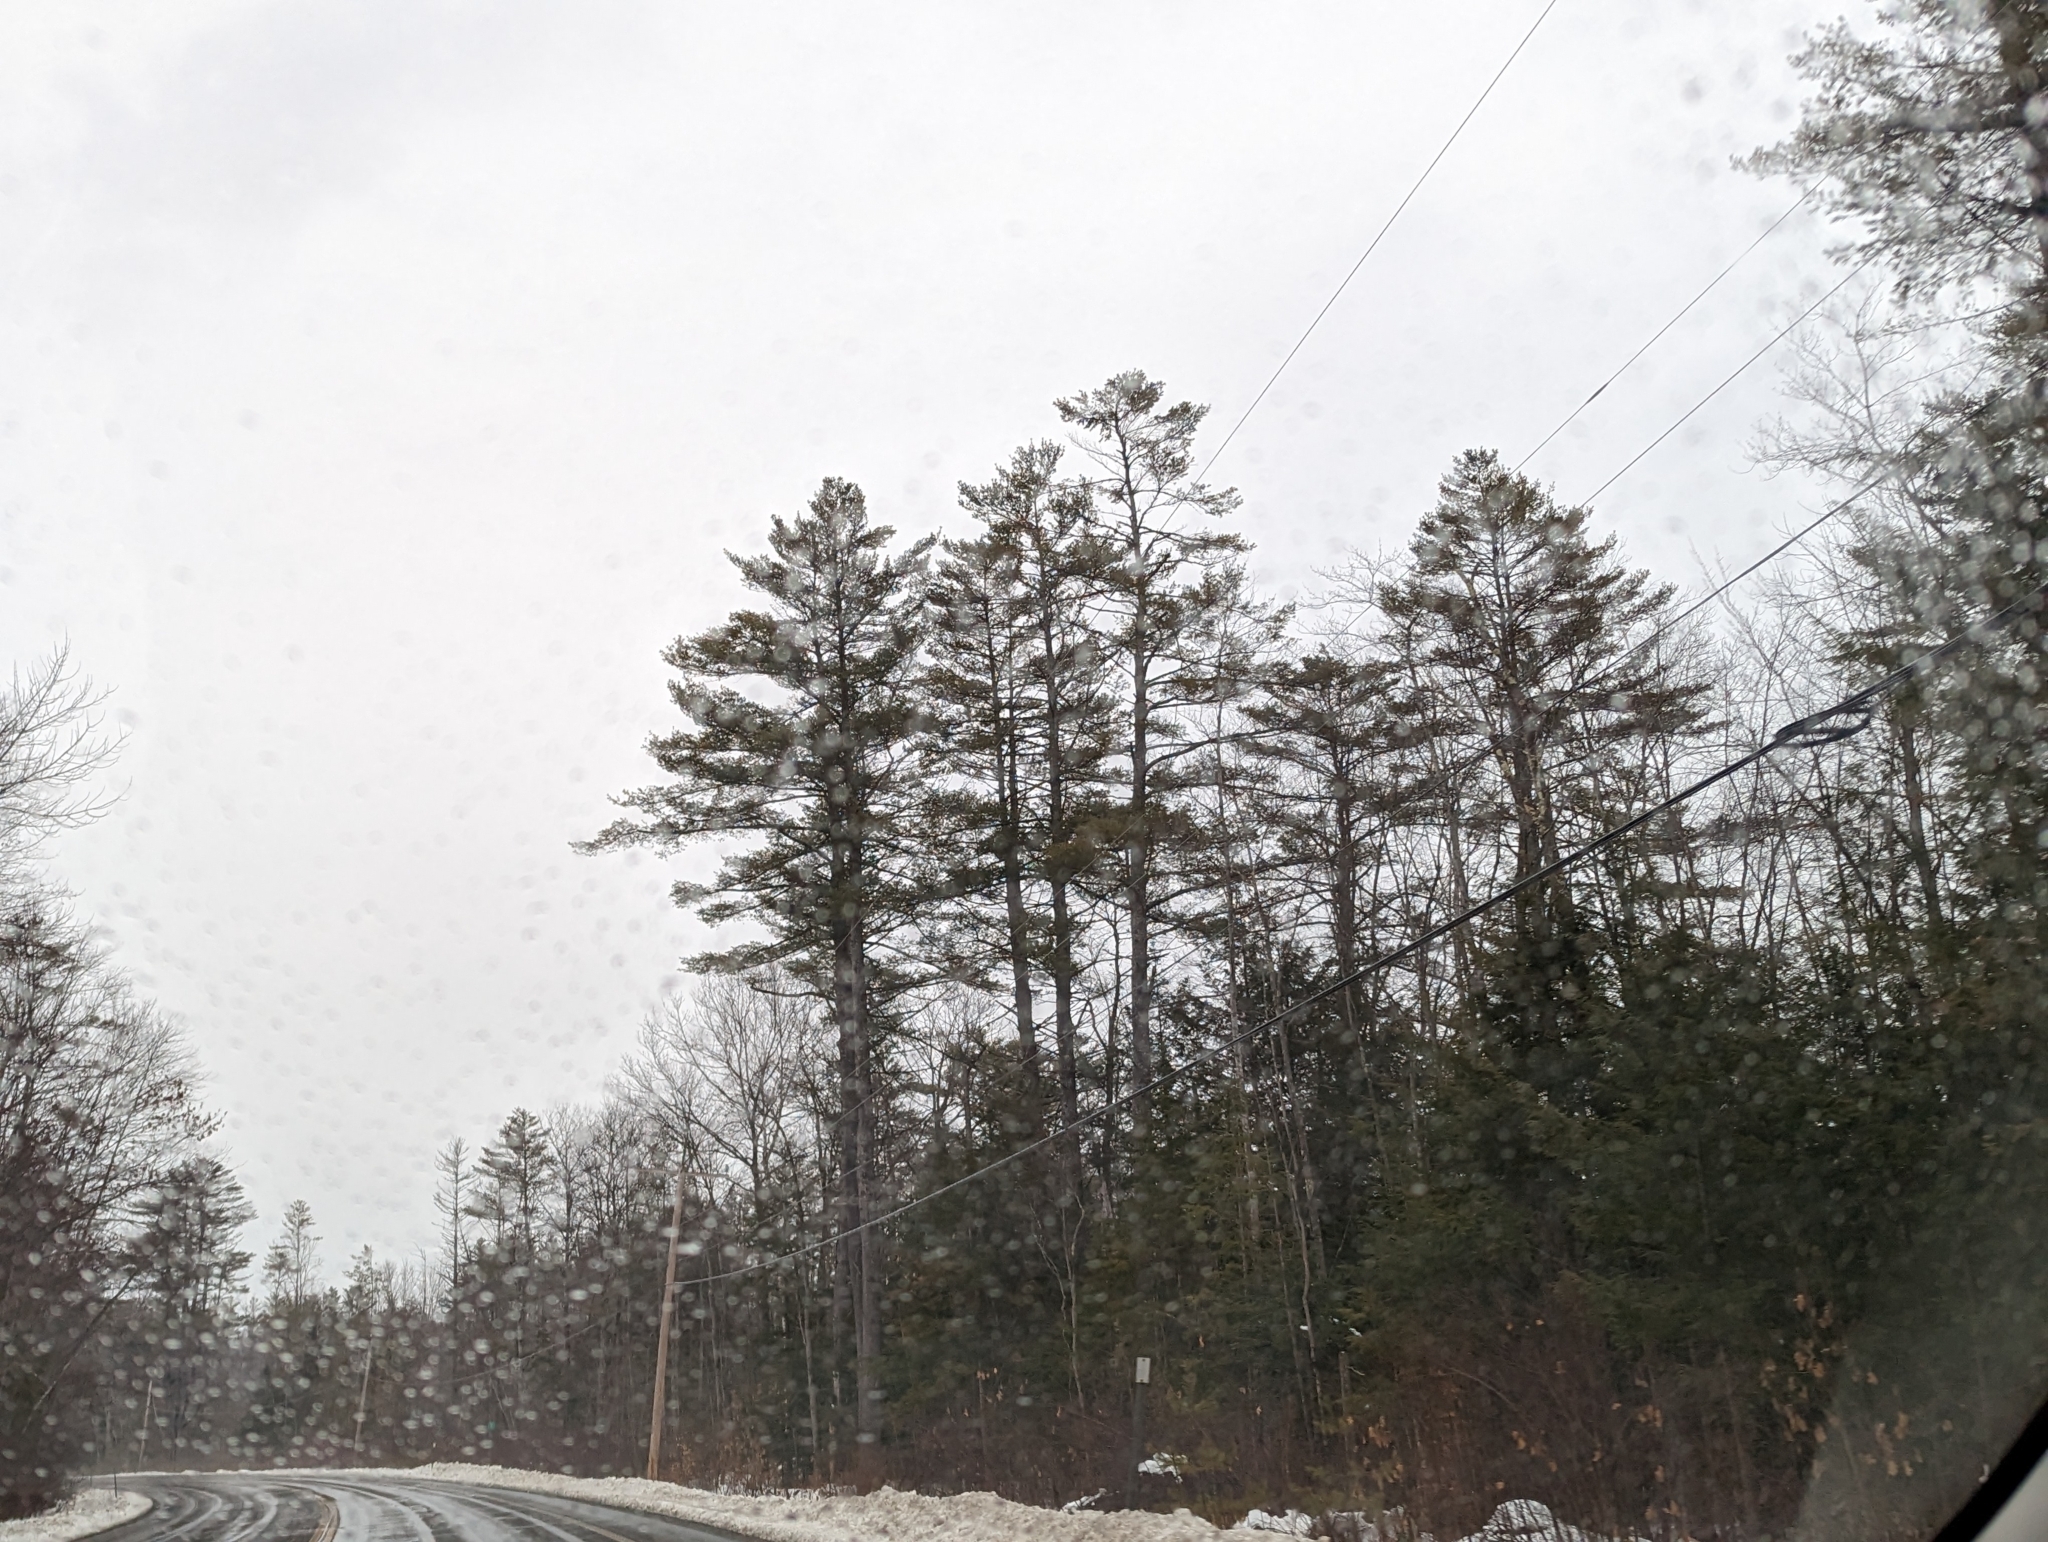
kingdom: Plantae
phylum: Tracheophyta
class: Pinopsida
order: Pinales
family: Pinaceae
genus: Pinus
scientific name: Pinus strobus
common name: Weymouth pine
